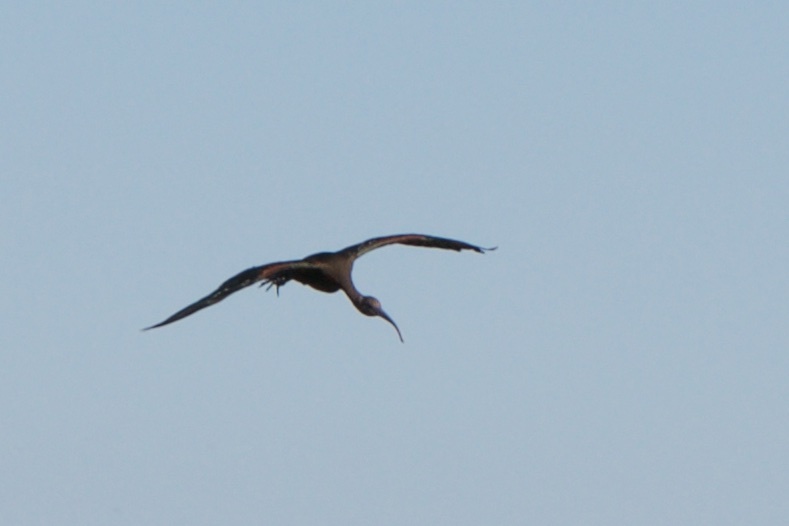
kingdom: Animalia
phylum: Chordata
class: Aves
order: Pelecaniformes
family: Threskiornithidae
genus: Plegadis
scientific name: Plegadis chihi
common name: White-faced ibis
